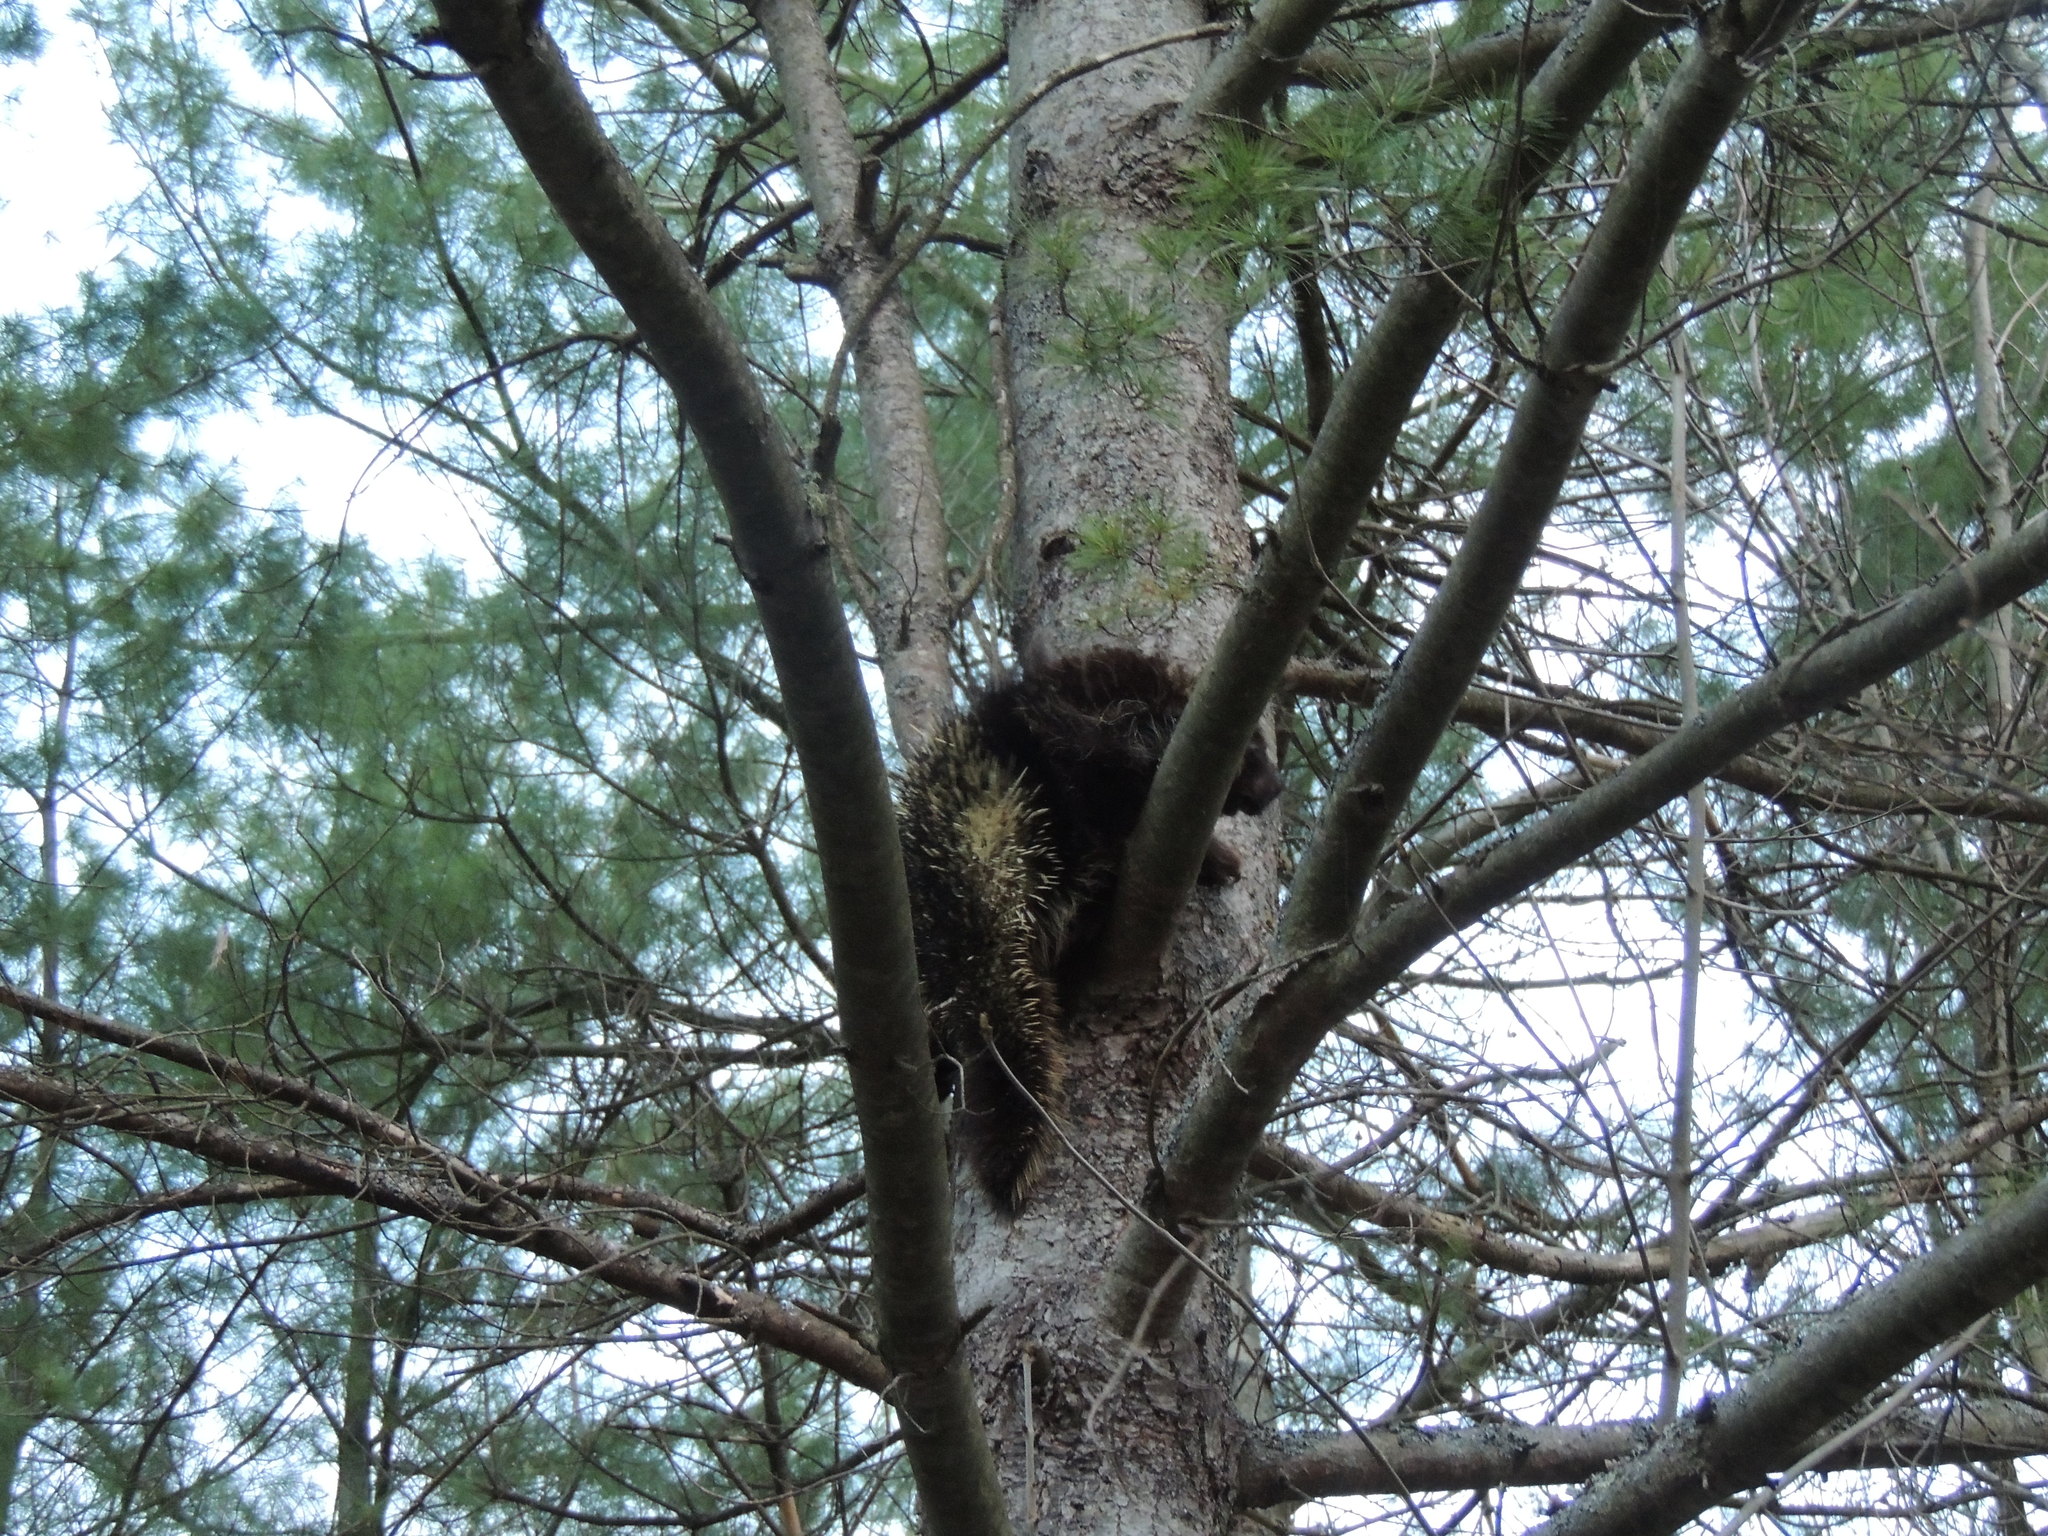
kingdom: Animalia
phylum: Chordata
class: Mammalia
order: Rodentia
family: Erethizontidae
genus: Erethizon
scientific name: Erethizon dorsatus
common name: North american porcupine
